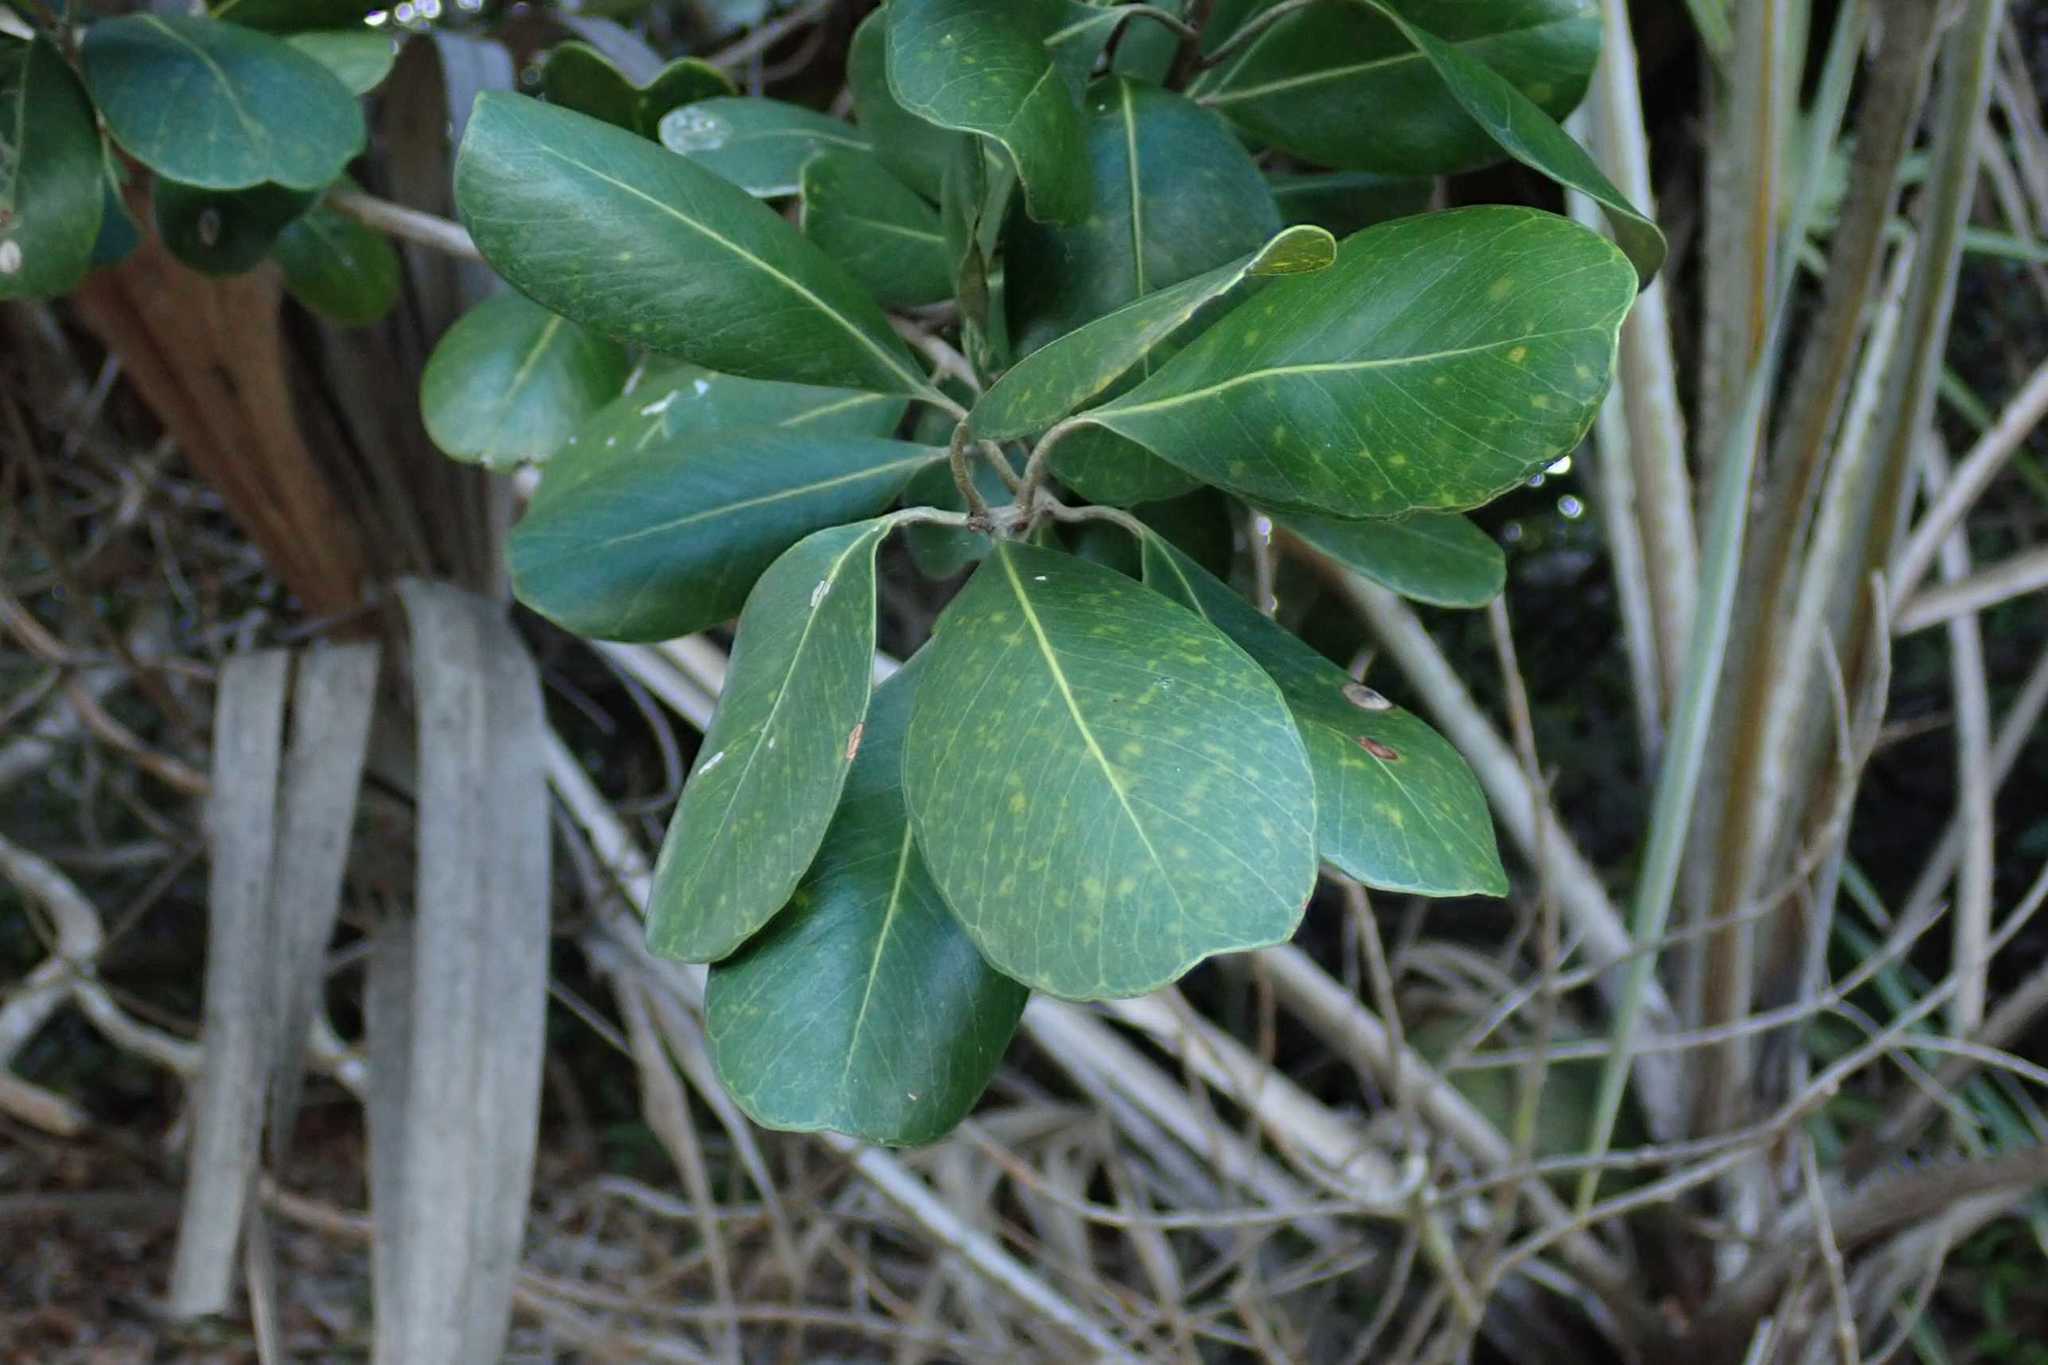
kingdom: Plantae
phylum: Tracheophyta
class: Magnoliopsida
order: Ericales
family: Sapotaceae
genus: Mimusops
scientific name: Mimusops caffra
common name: Coastal red milkwood
